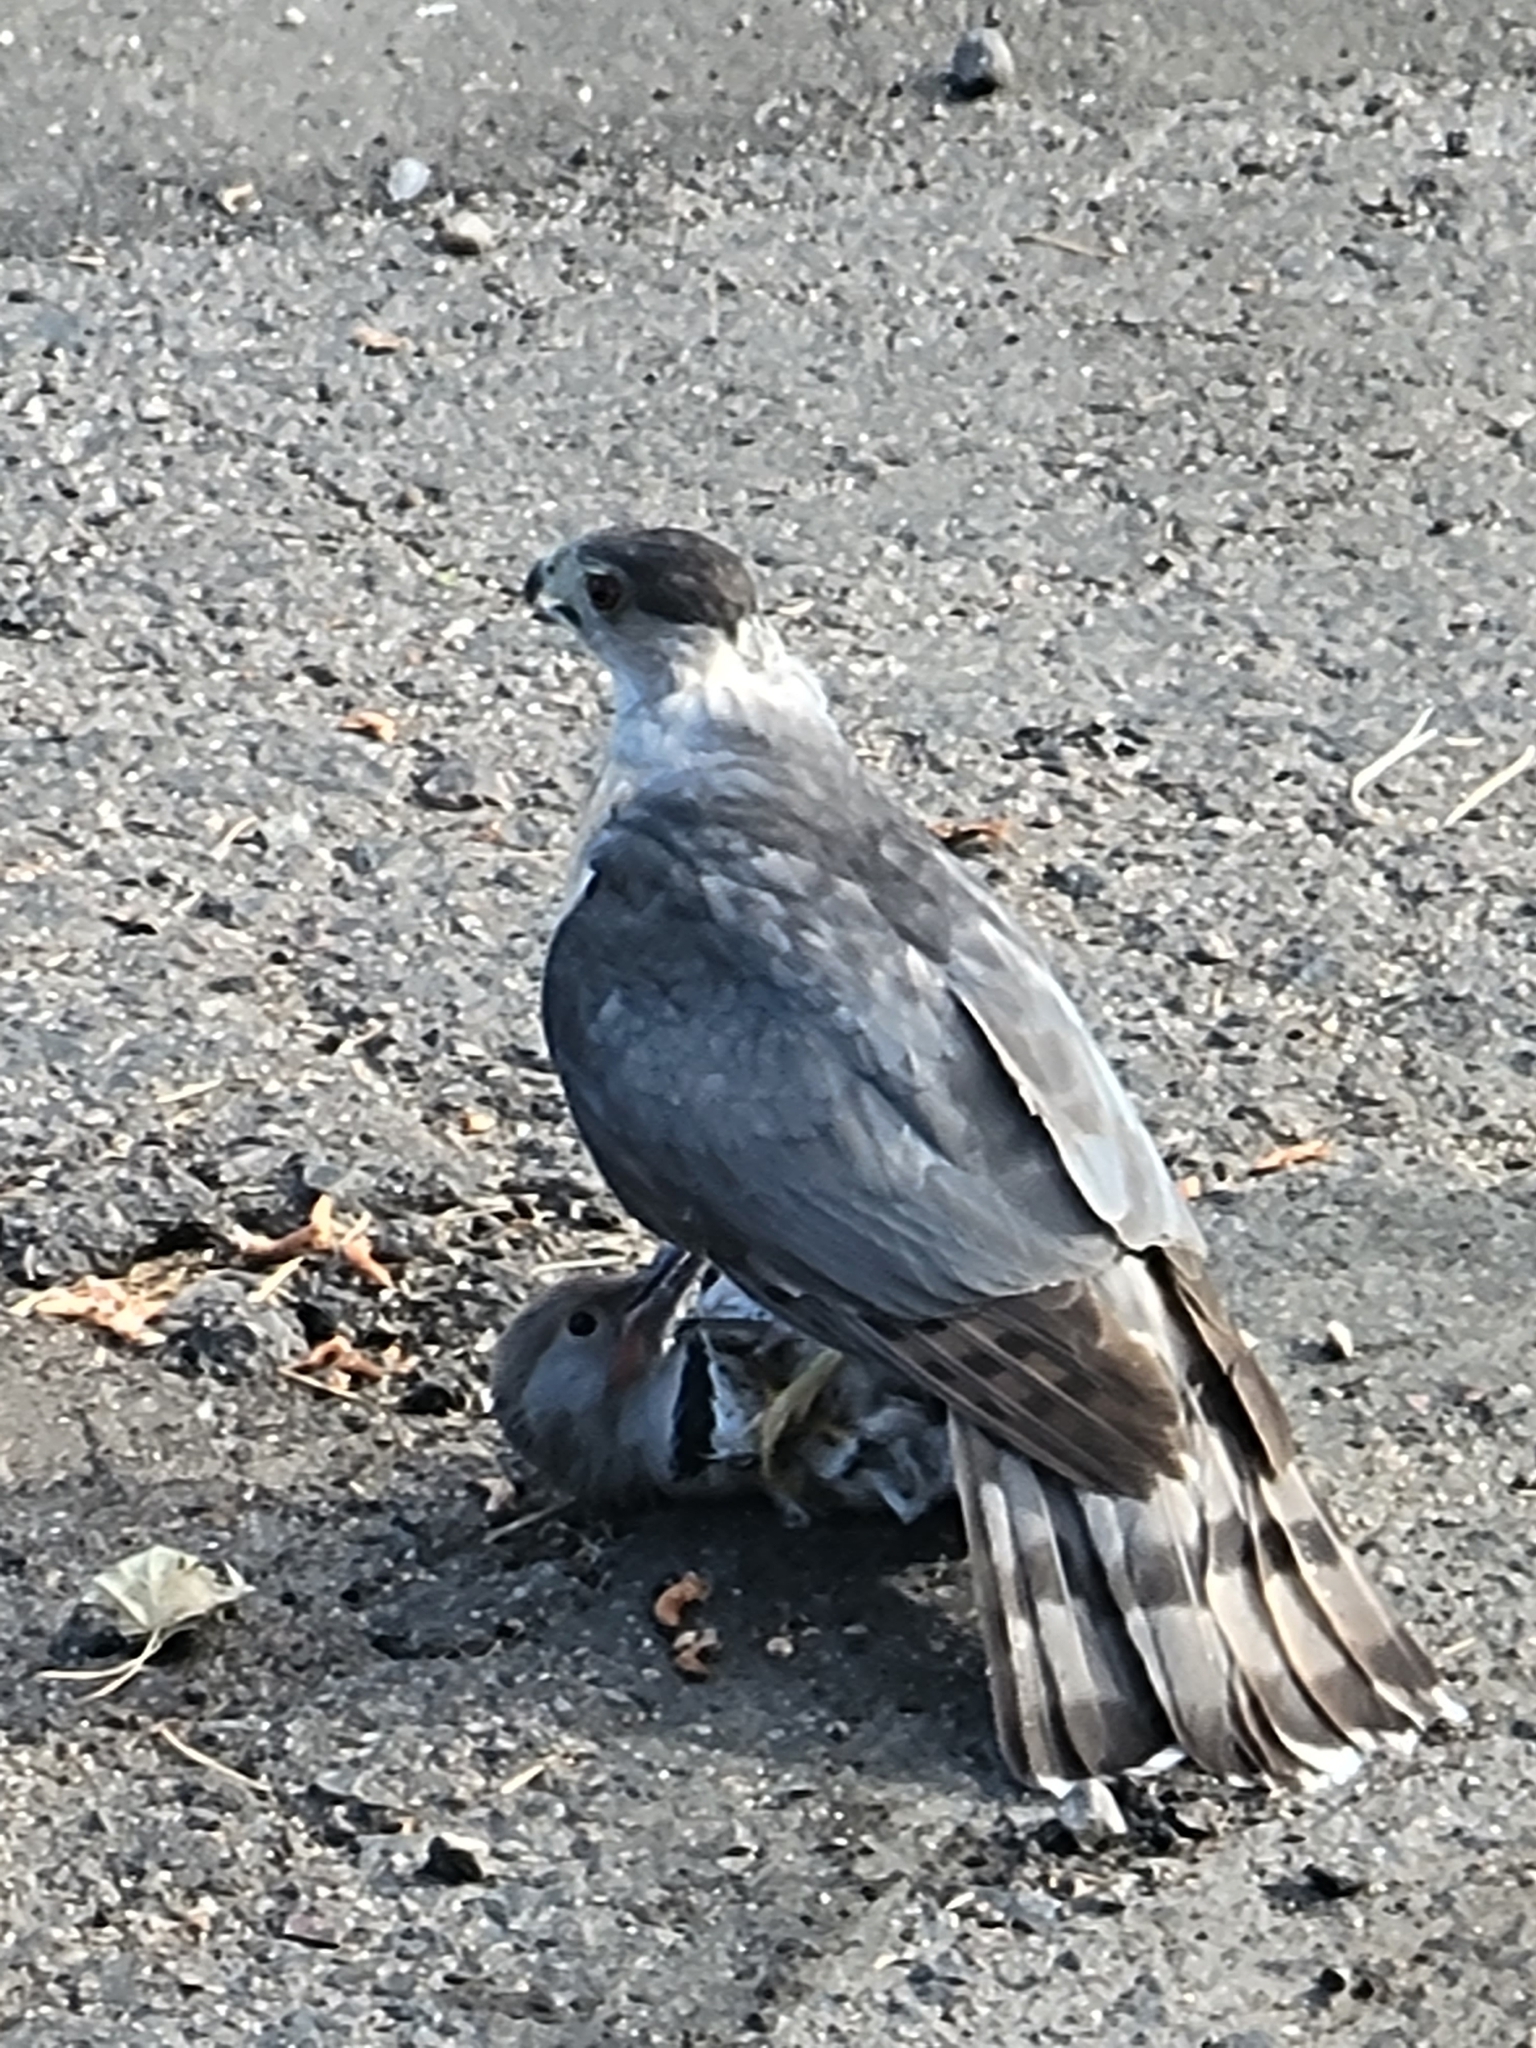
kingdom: Animalia
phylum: Chordata
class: Aves
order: Accipitriformes
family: Accipitridae
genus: Accipiter
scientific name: Accipiter cooperii
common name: Cooper's hawk
